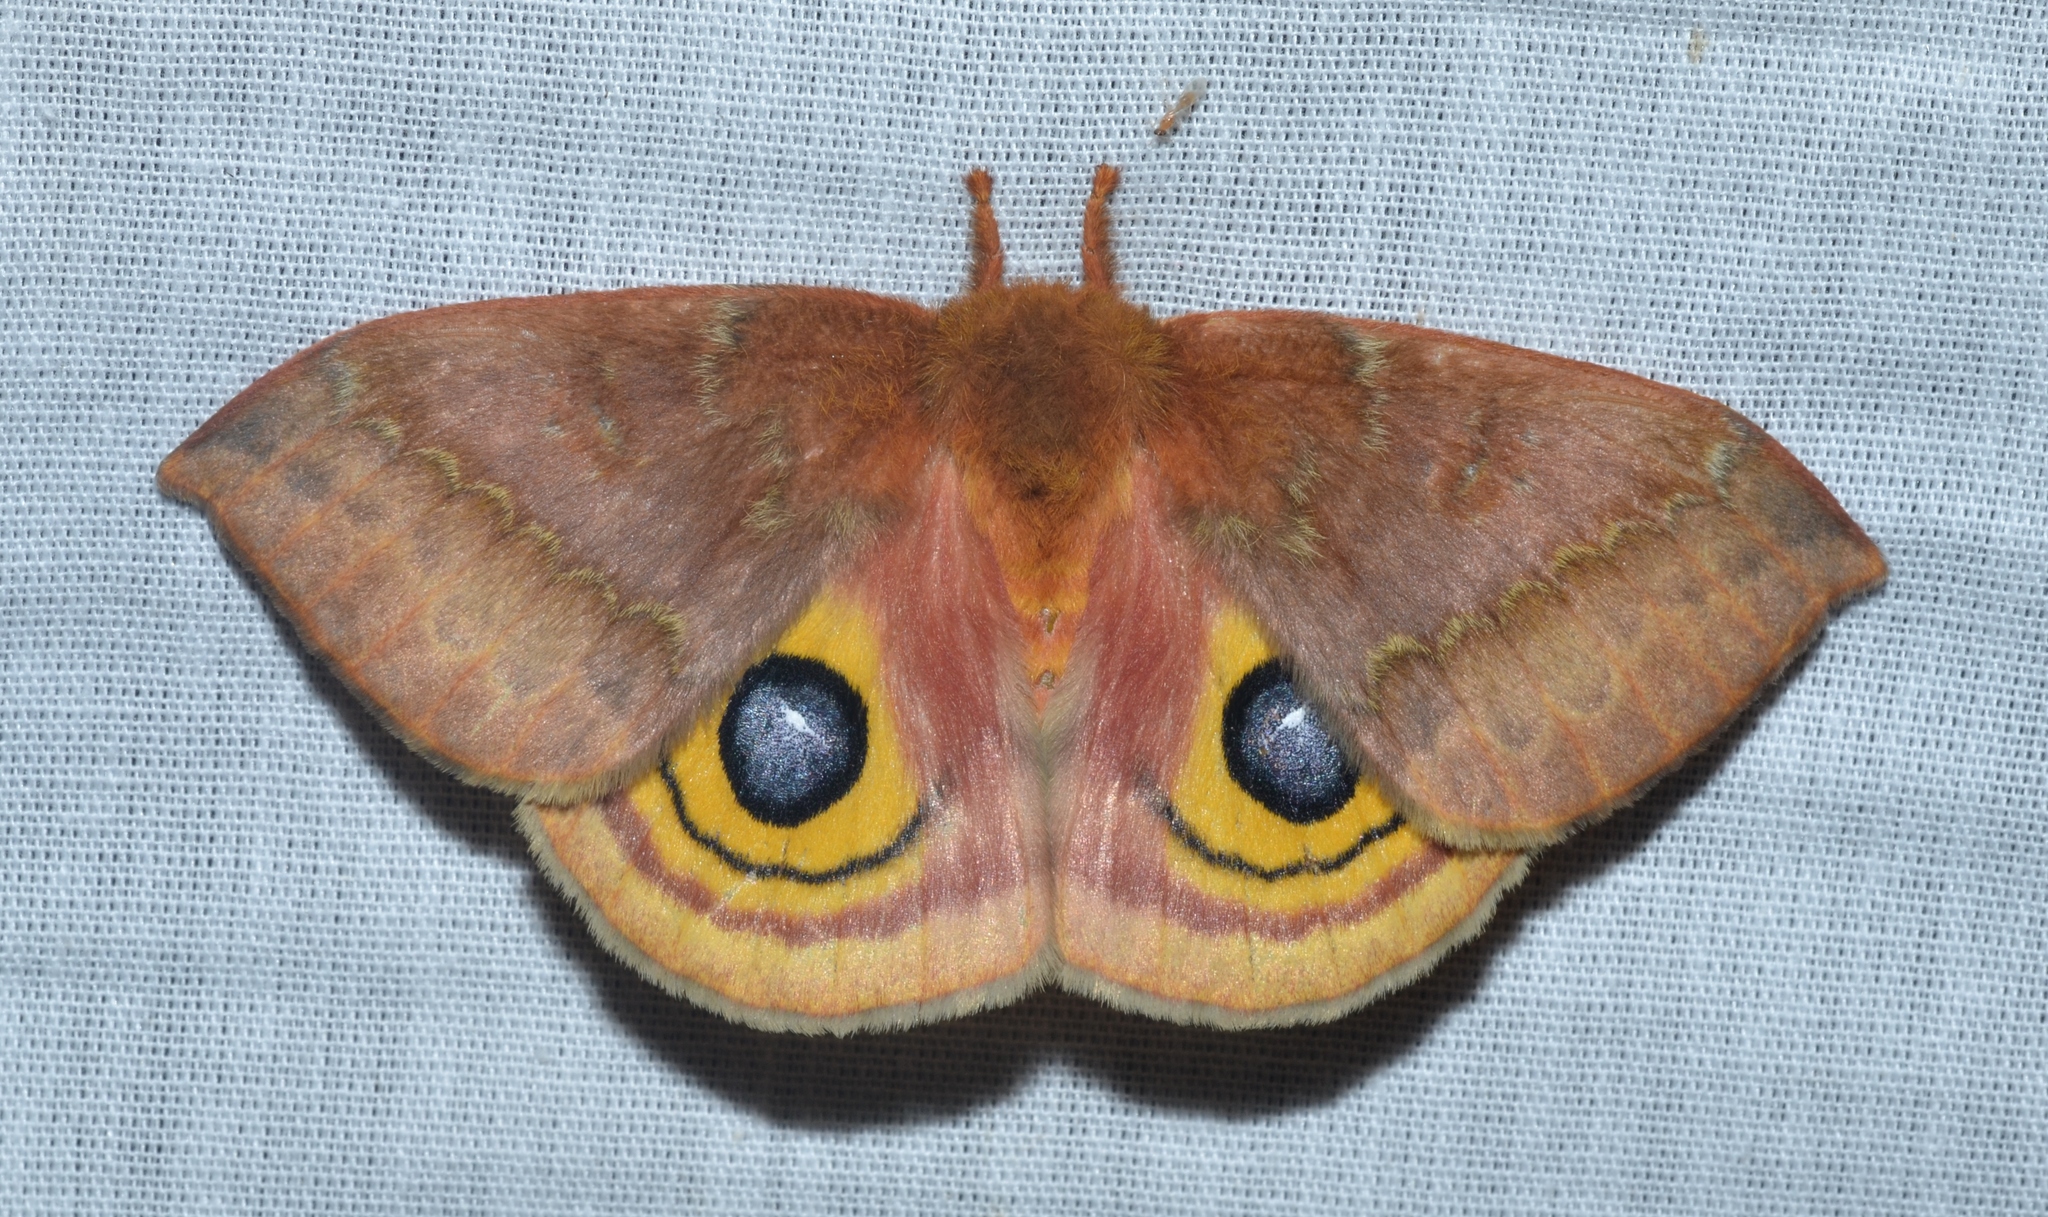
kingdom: Animalia
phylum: Arthropoda
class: Insecta
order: Lepidoptera
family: Saturniidae
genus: Automeris
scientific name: Automeris io
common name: Io moth
